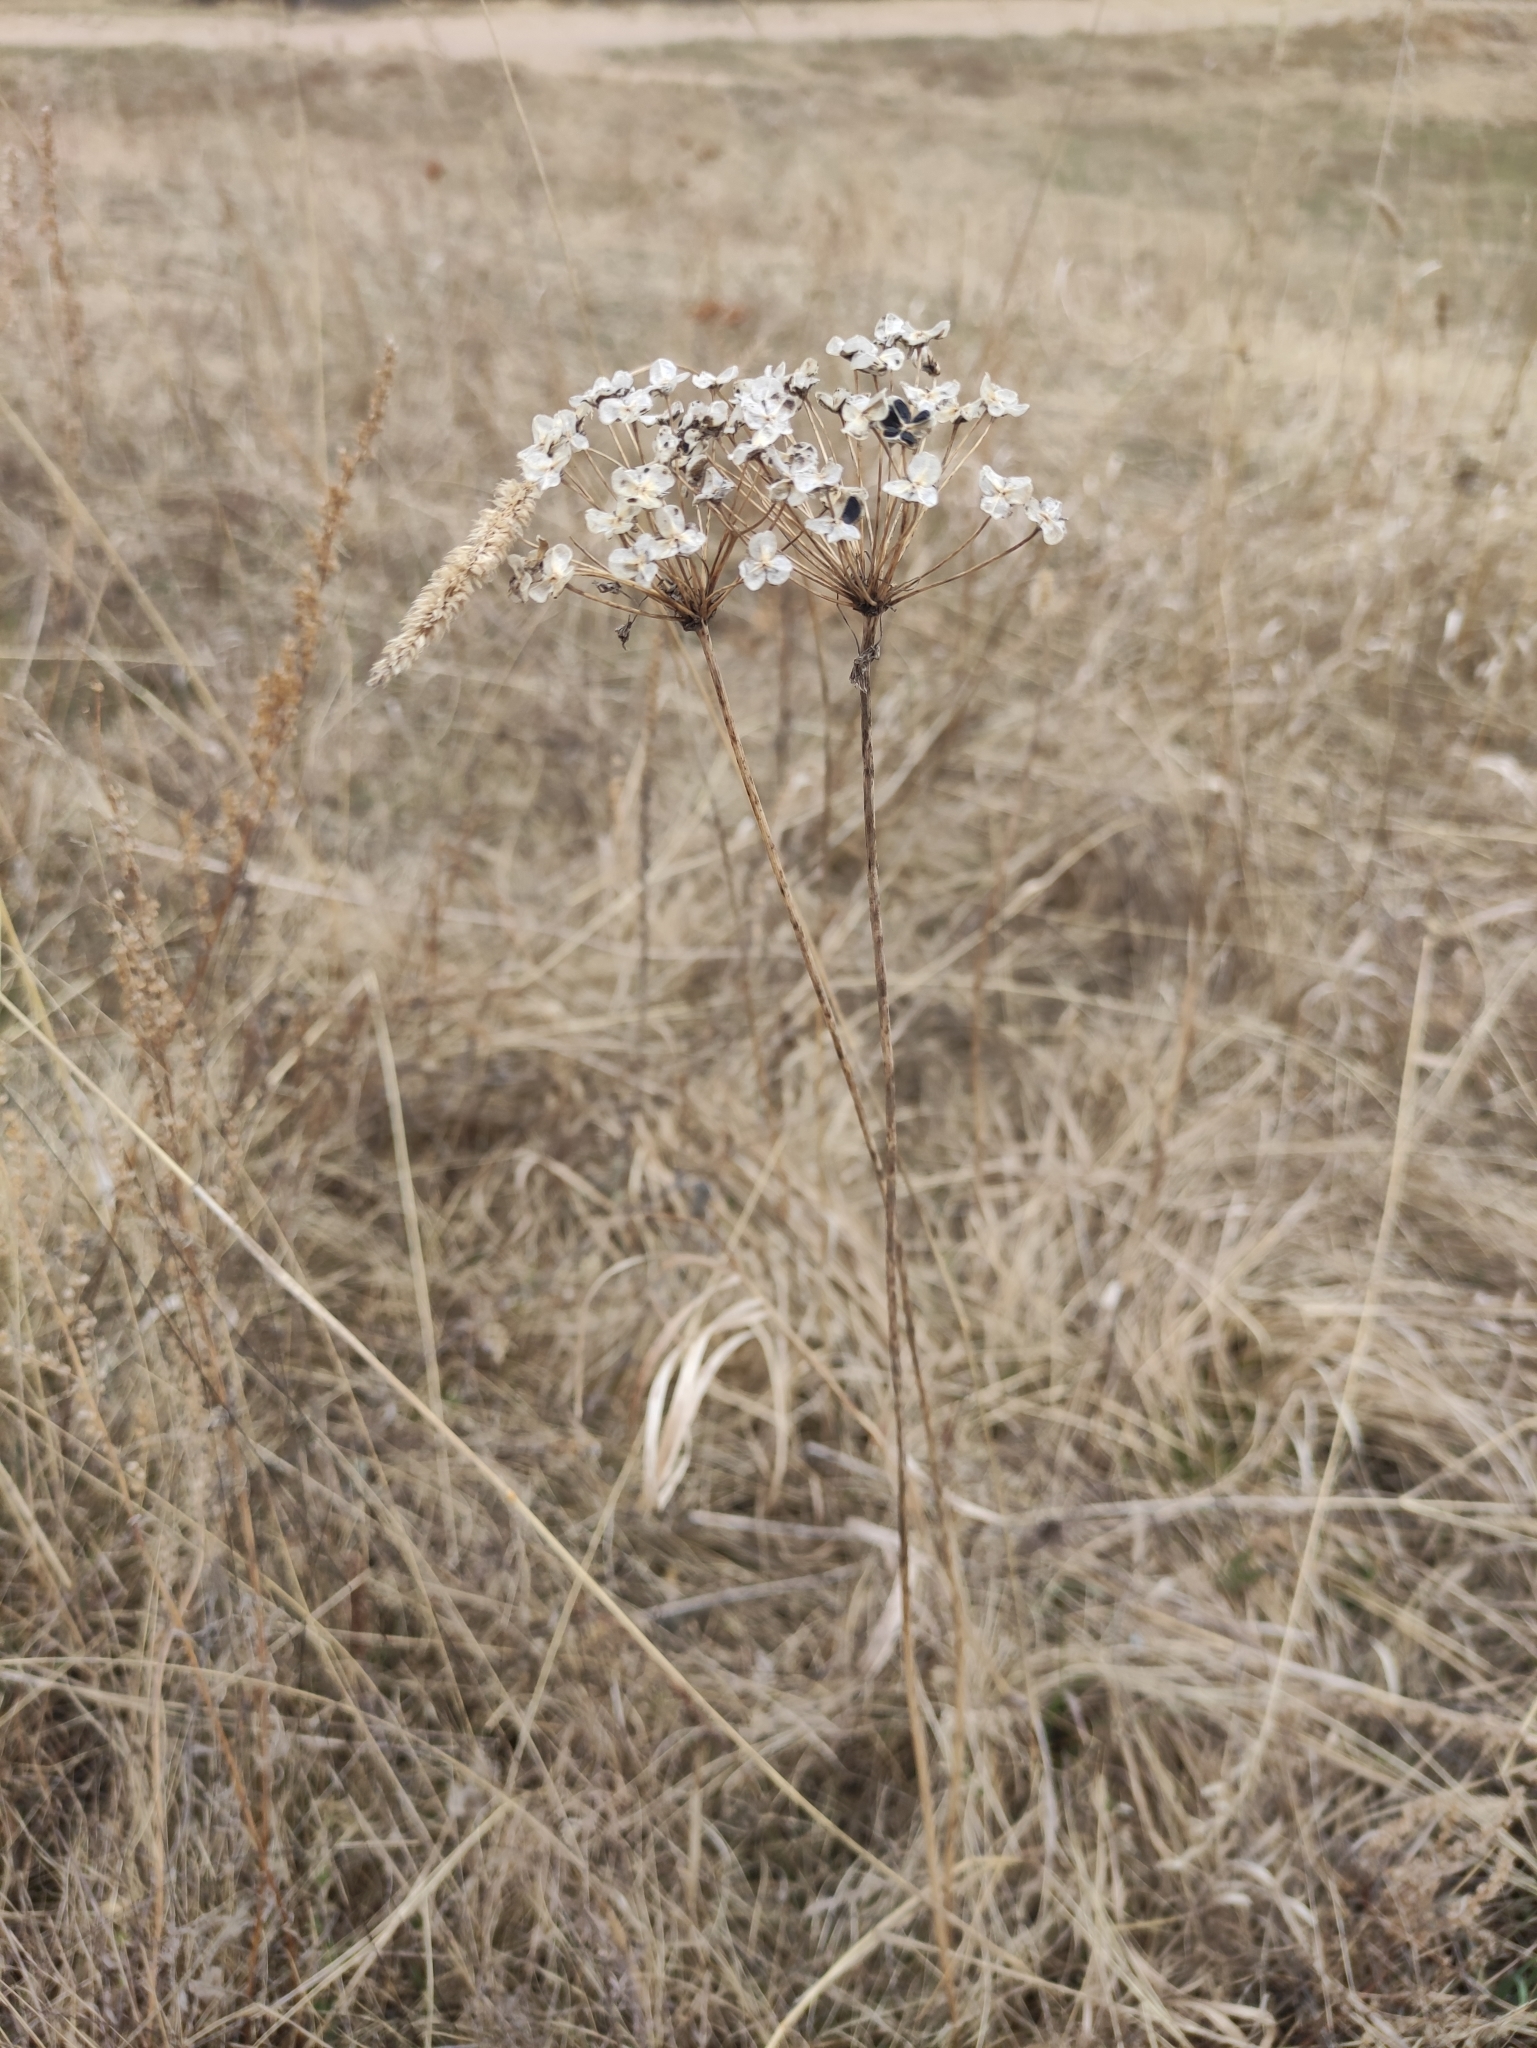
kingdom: Plantae
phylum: Tracheophyta
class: Liliopsida
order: Asparagales
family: Amaryllidaceae
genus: Allium
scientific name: Allium ramosum
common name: Fragrant garlic
